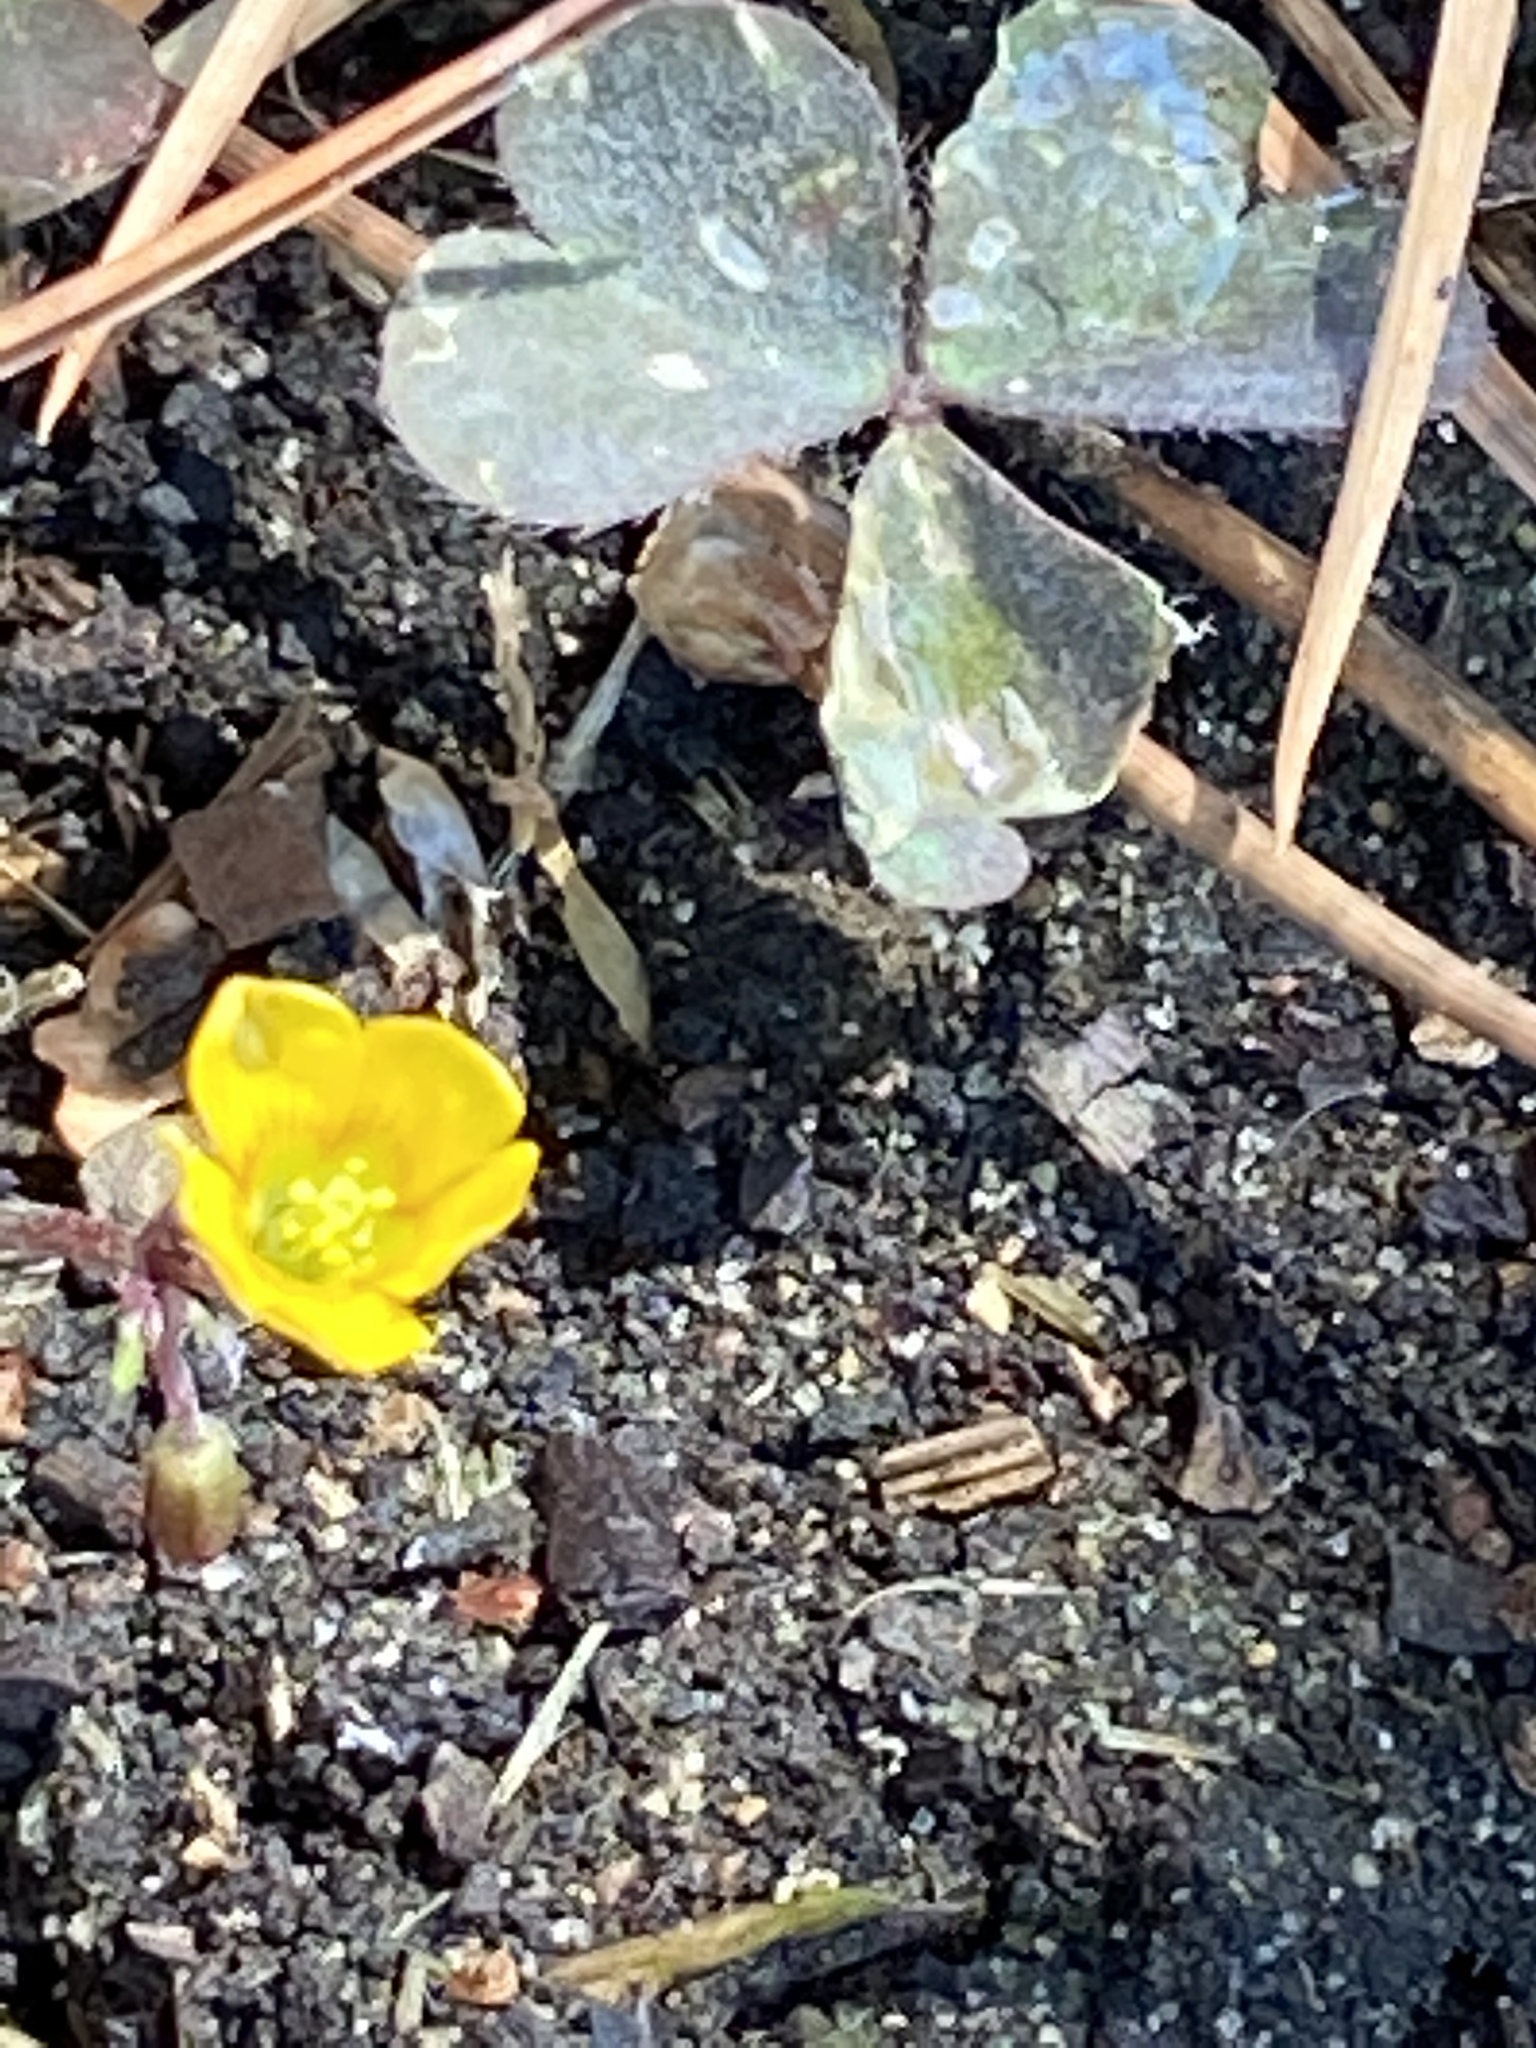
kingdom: Plantae
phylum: Tracheophyta
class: Magnoliopsida
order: Oxalidales
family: Oxalidaceae
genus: Oxalis
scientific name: Oxalis corniculata
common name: Procumbent yellow-sorrel
